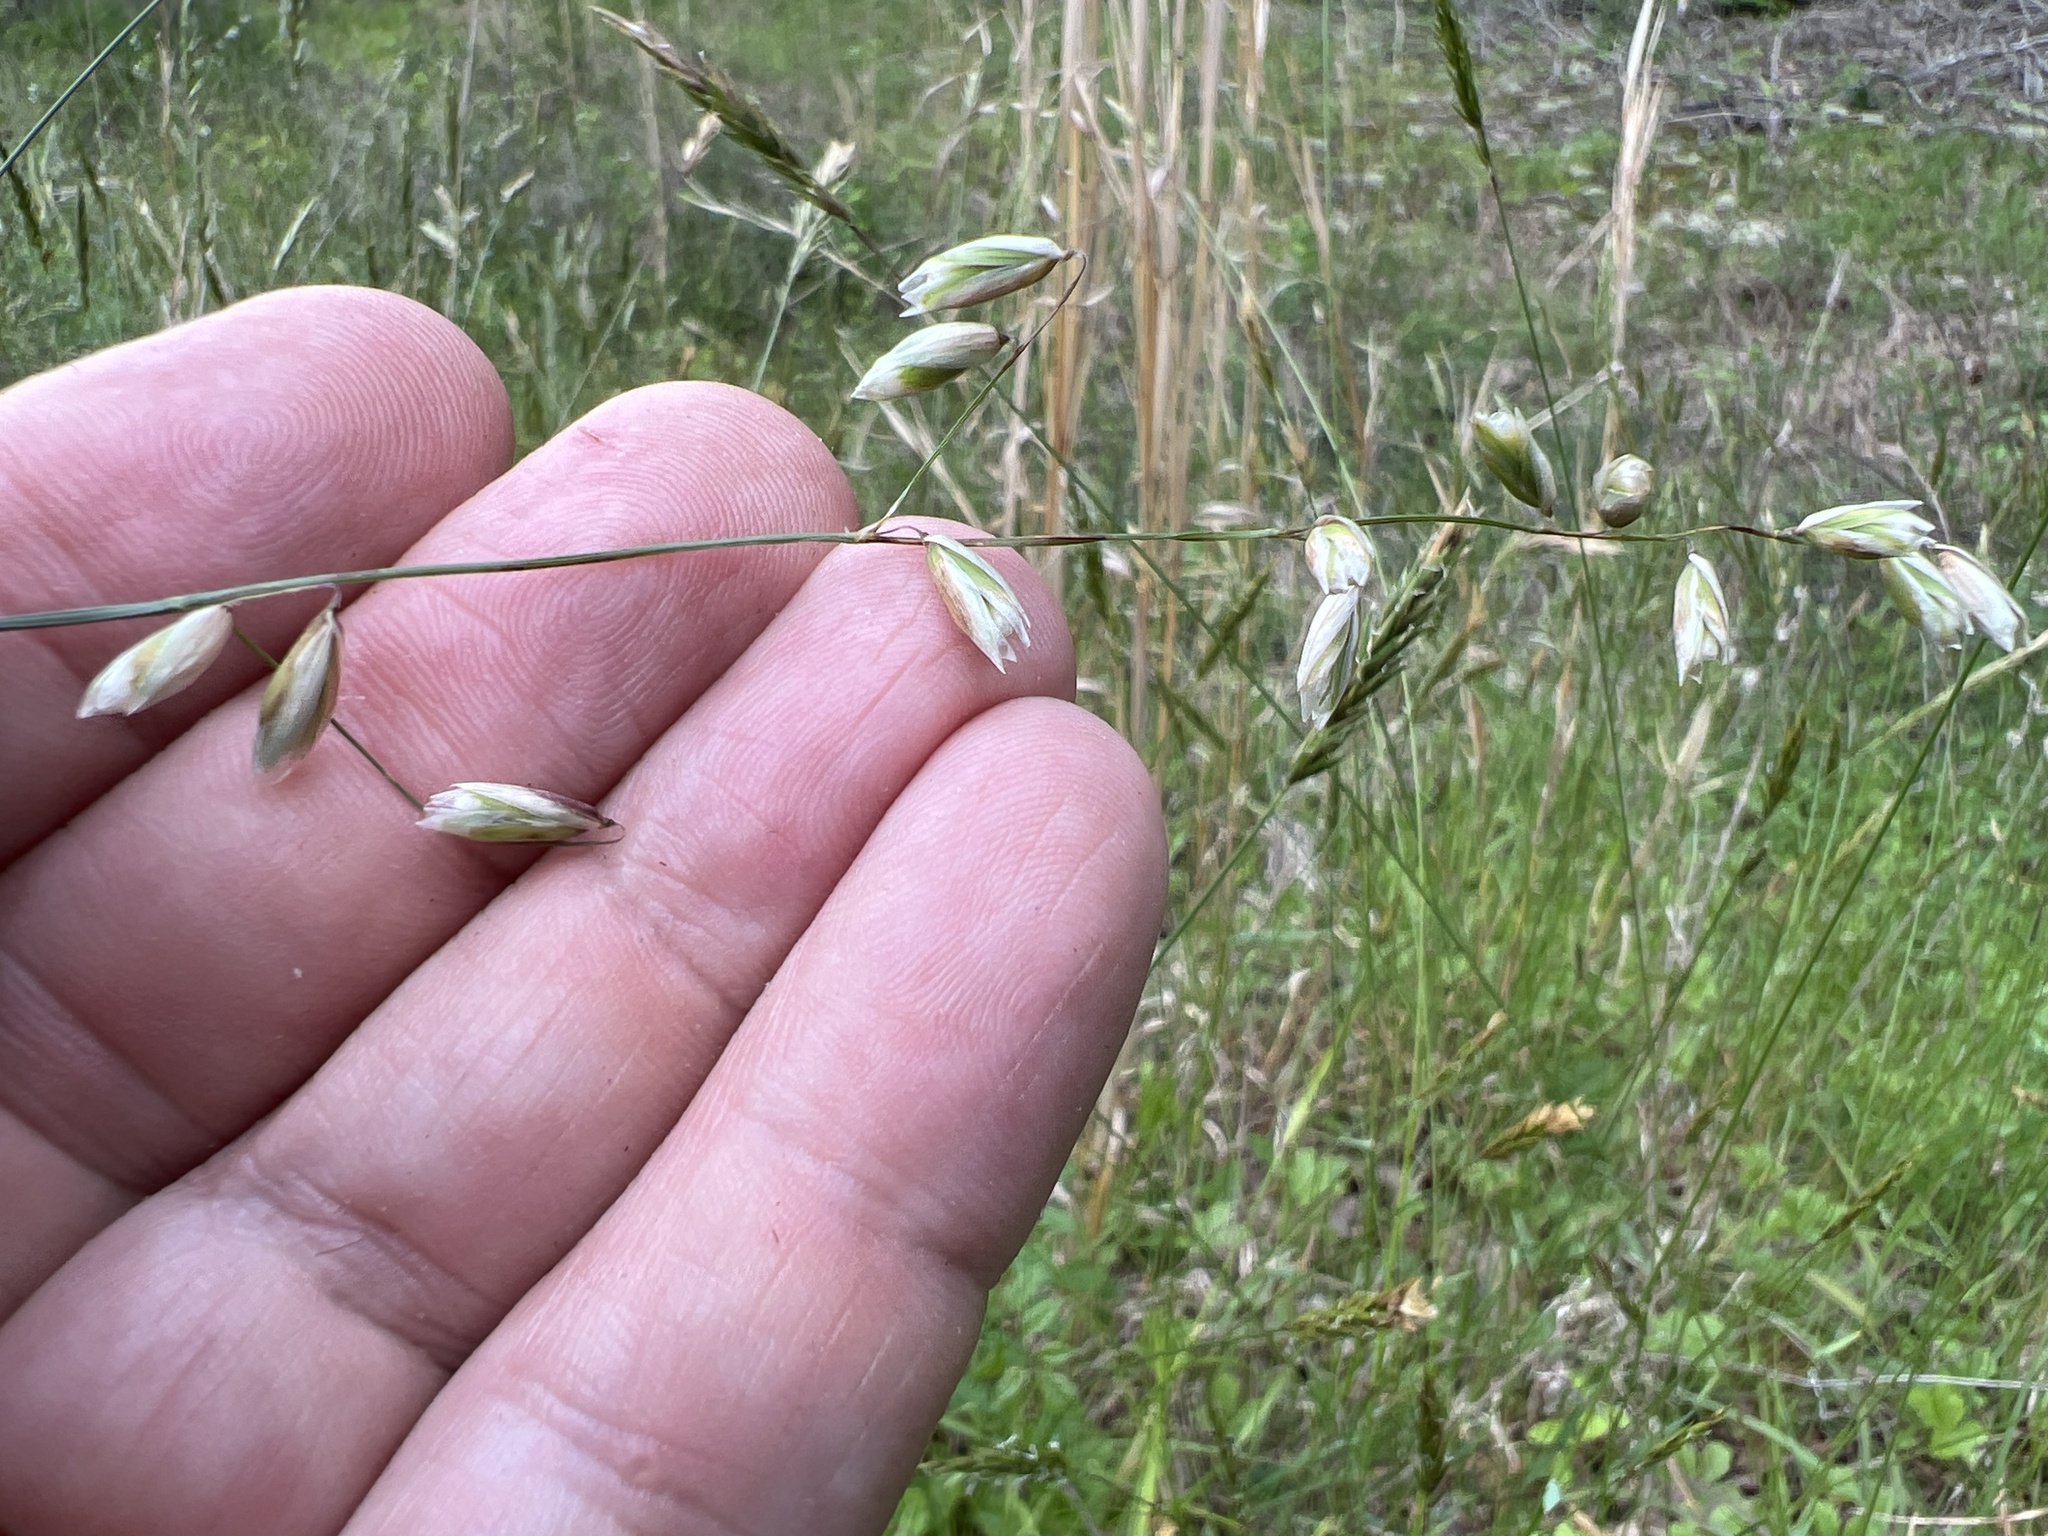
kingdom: Plantae
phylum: Tracheophyta
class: Liliopsida
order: Poales
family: Poaceae
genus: Melica
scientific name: Melica mutica
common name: Two-flower melic
